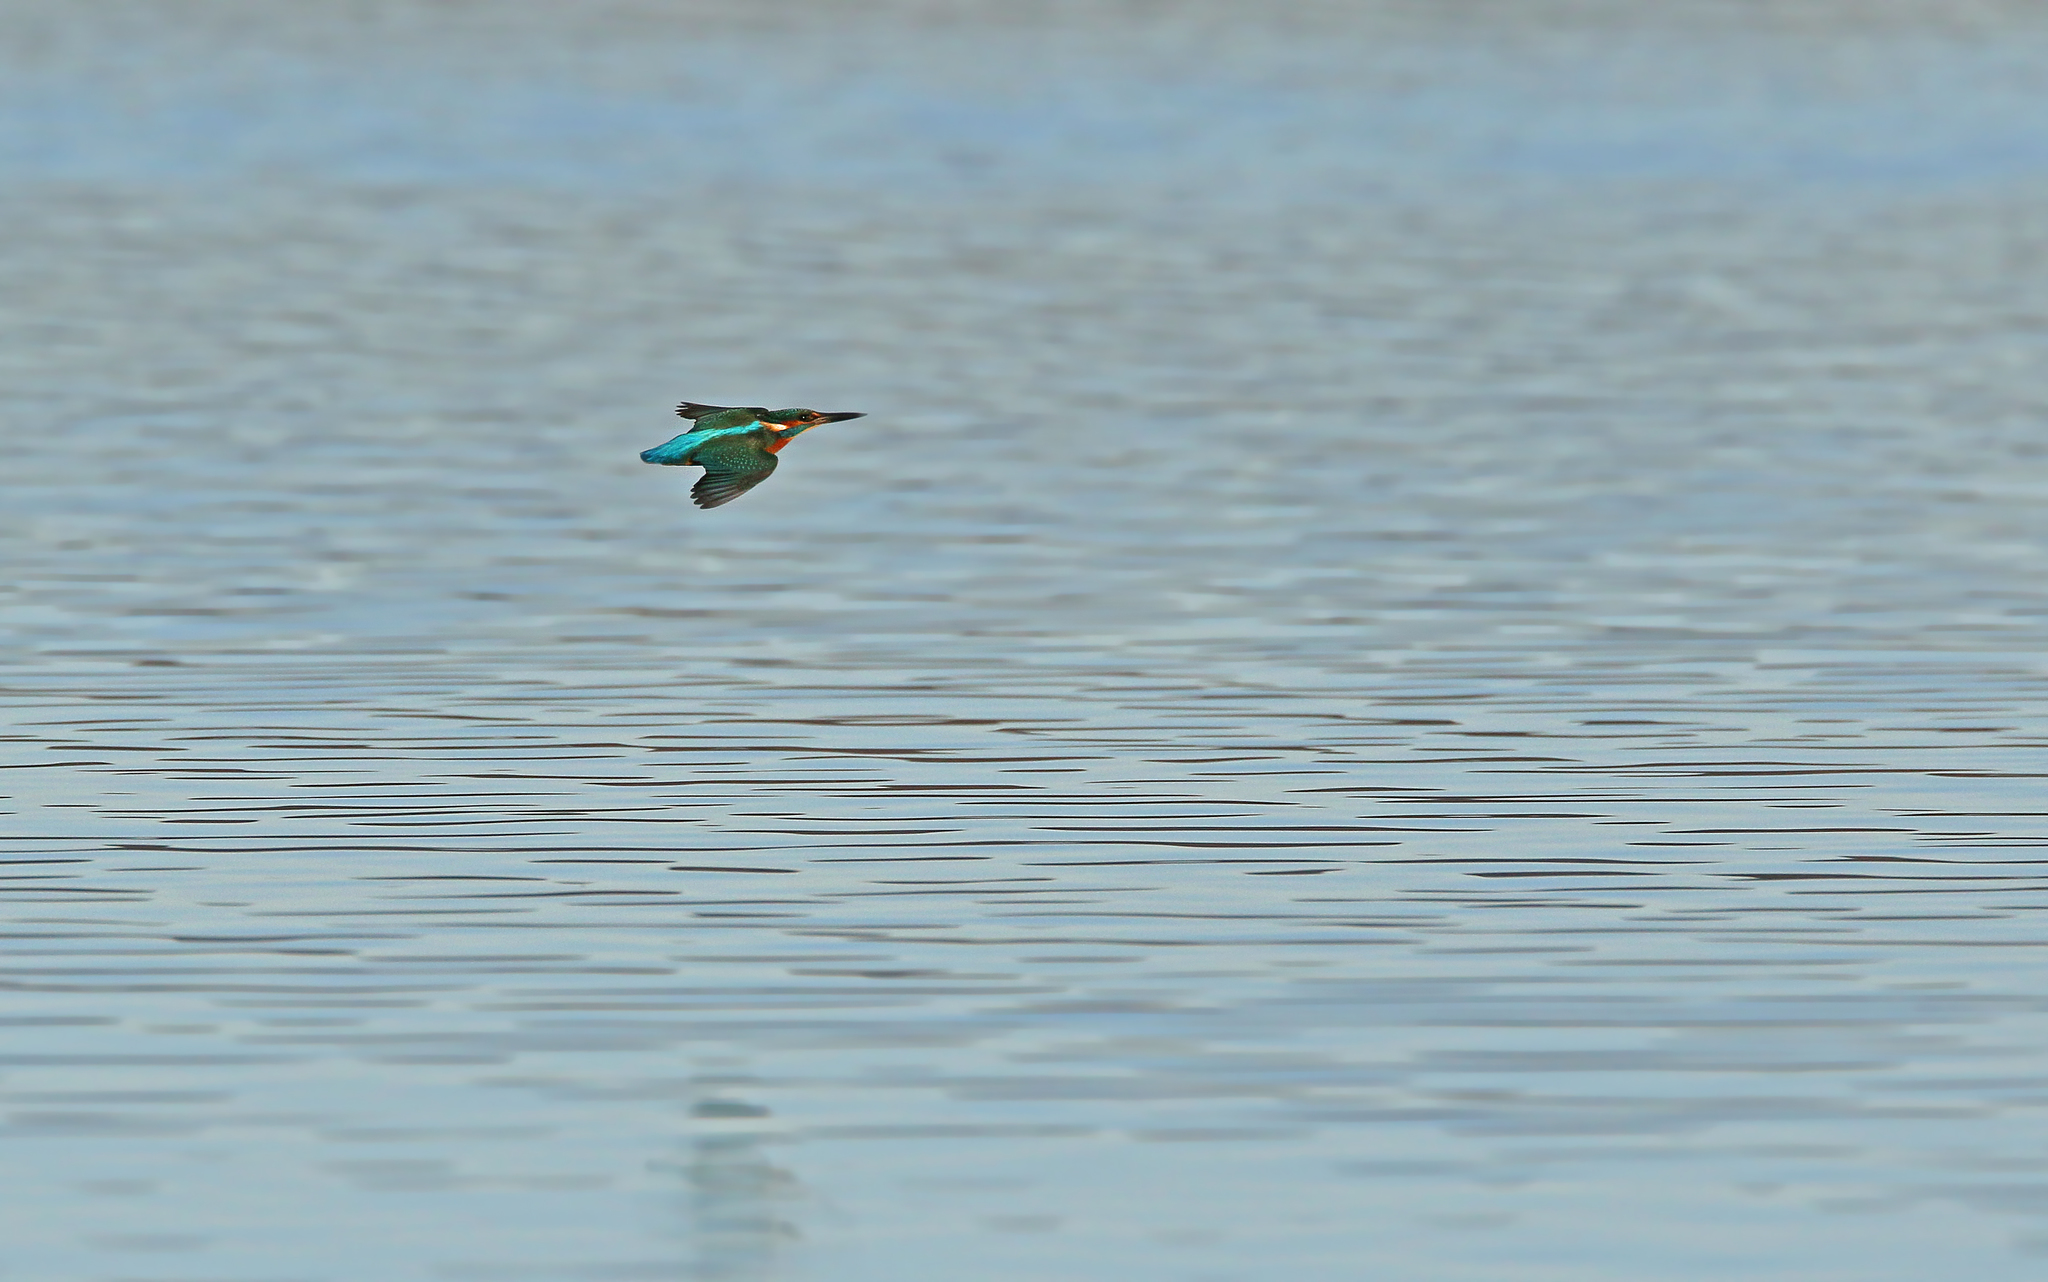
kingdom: Animalia
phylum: Chordata
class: Aves
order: Coraciiformes
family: Alcedinidae
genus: Alcedo
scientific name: Alcedo atthis
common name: Common kingfisher
